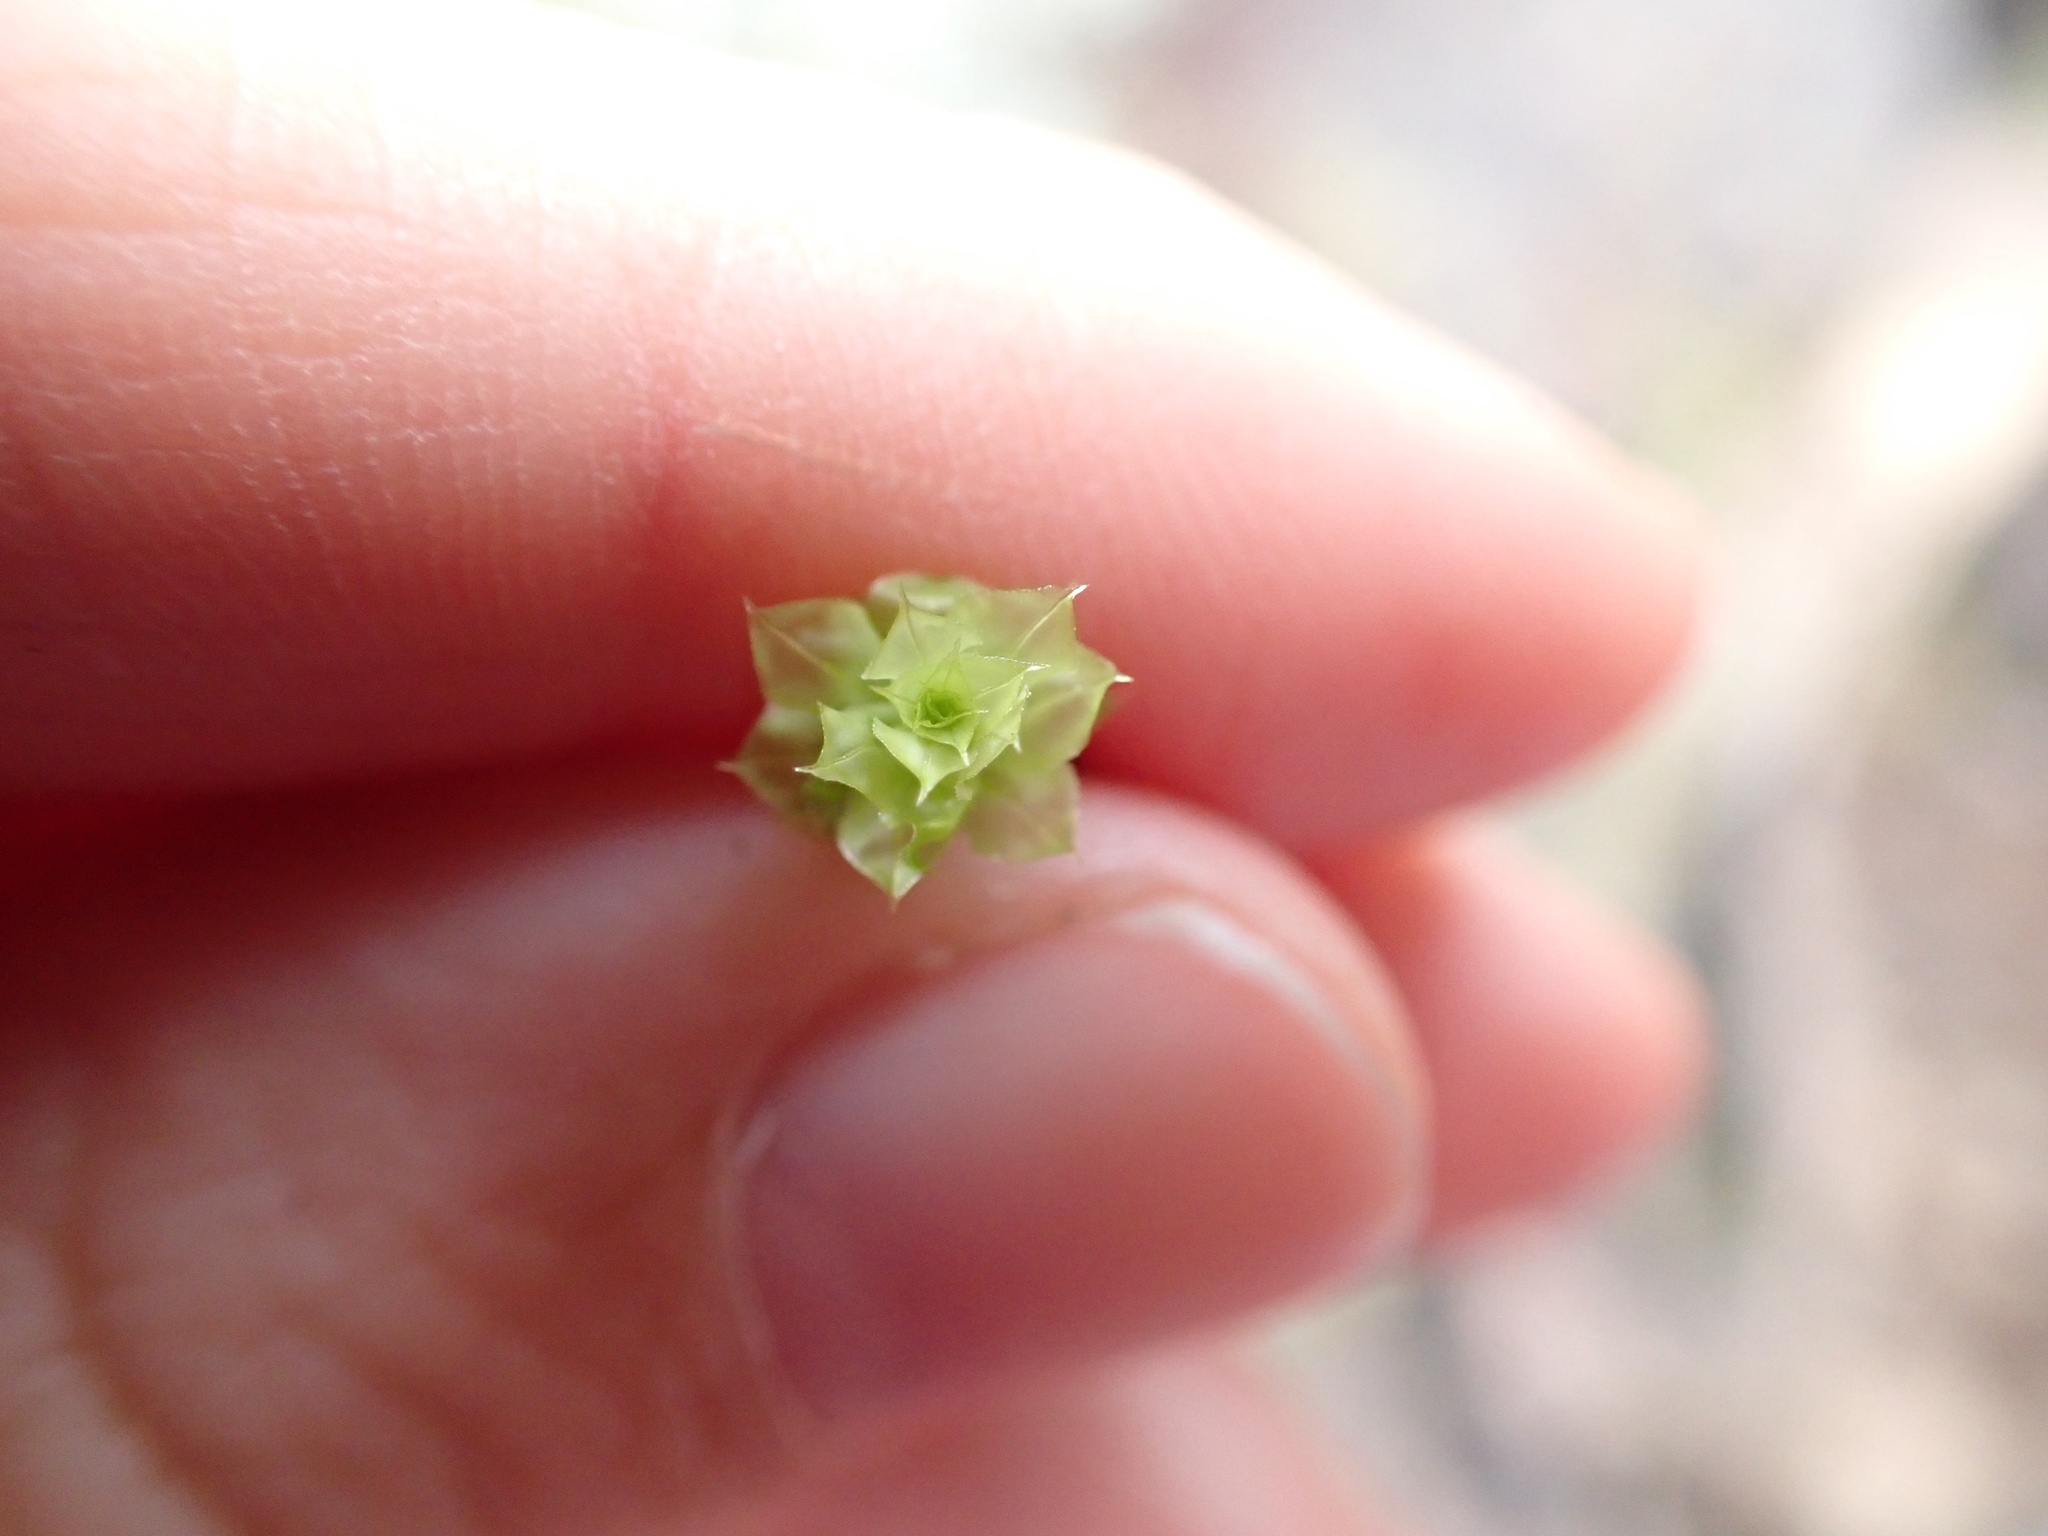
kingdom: Plantae
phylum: Bryophyta
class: Bryopsida
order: Bryales
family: Mniaceae
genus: Plagiomnium
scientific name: Plagiomnium venustum
